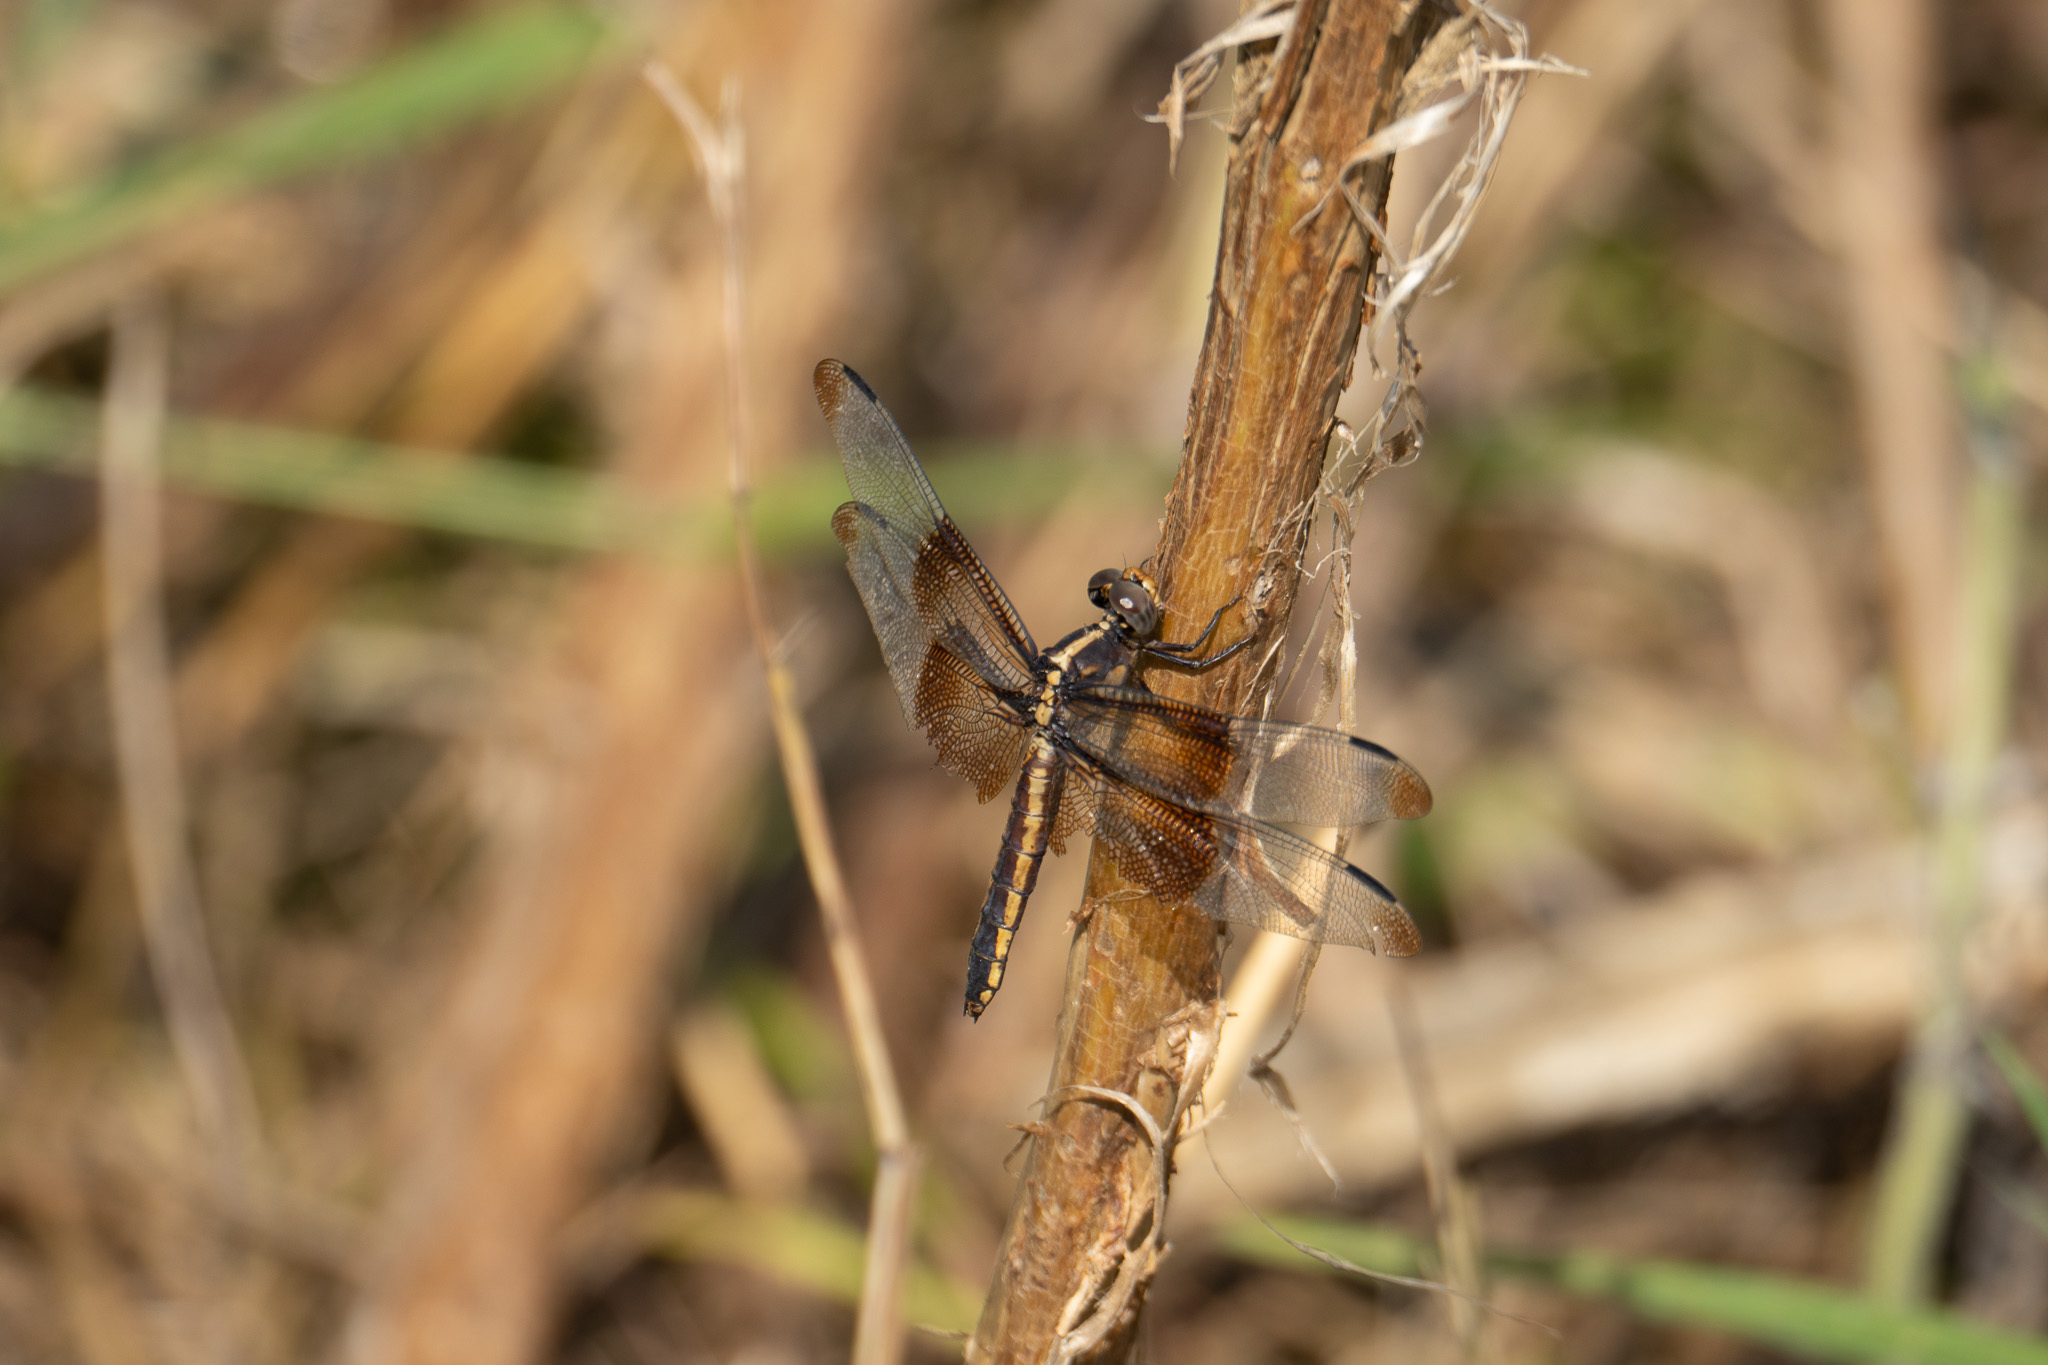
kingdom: Animalia
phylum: Arthropoda
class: Insecta
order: Odonata
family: Libellulidae
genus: Libellula
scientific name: Libellula luctuosa
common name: Widow skimmer
